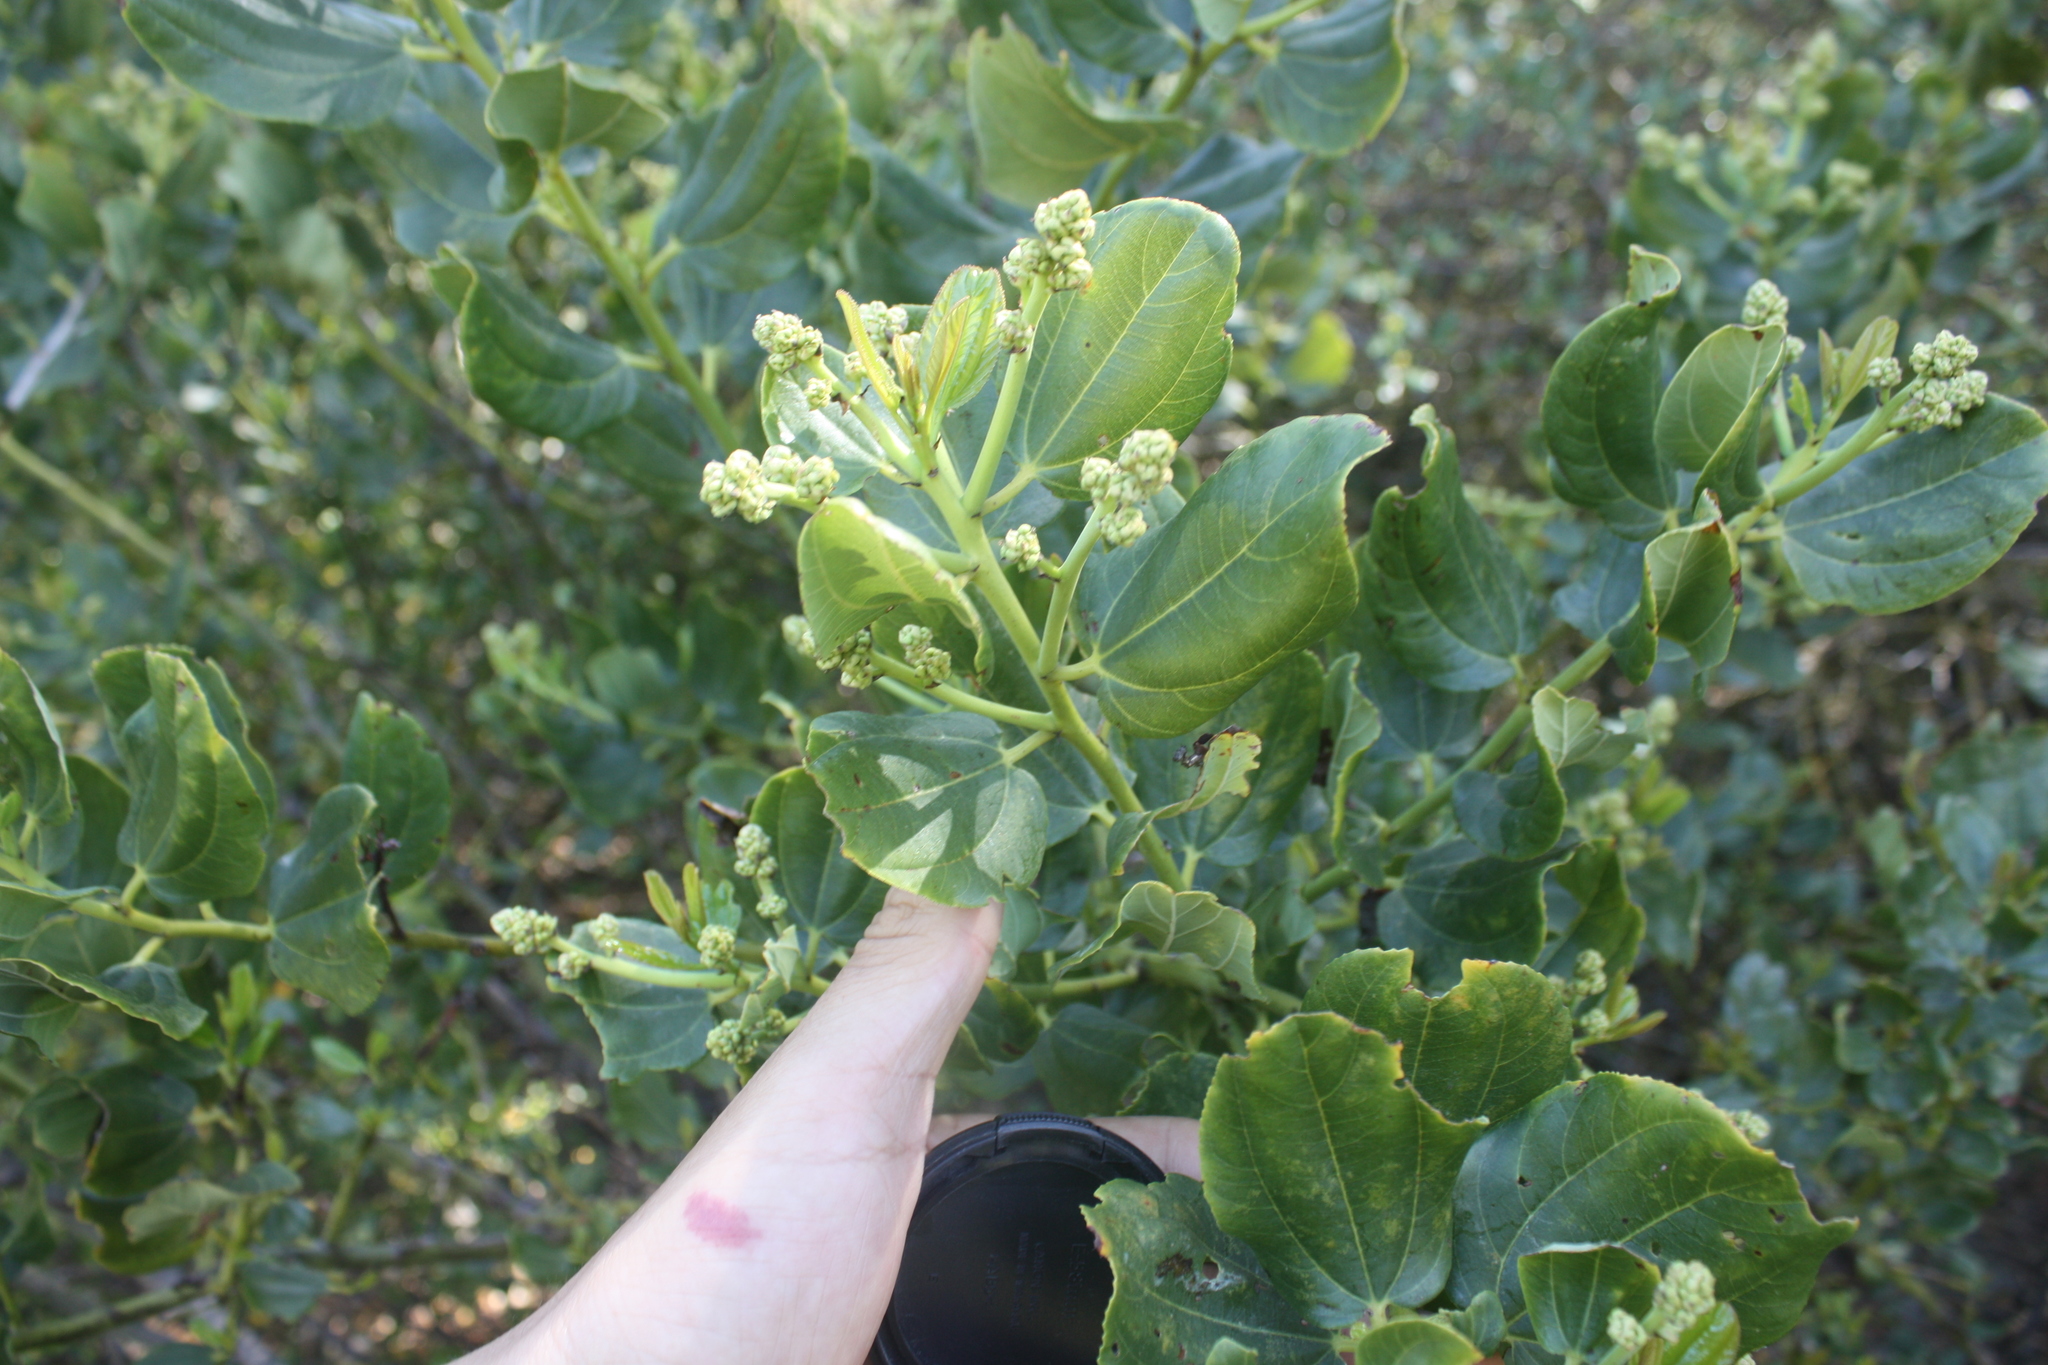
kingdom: Plantae
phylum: Tracheophyta
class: Magnoliopsida
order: Rosales
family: Rhamnaceae
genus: Ceanothus
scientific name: Ceanothus velutinus
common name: Snowbrush
